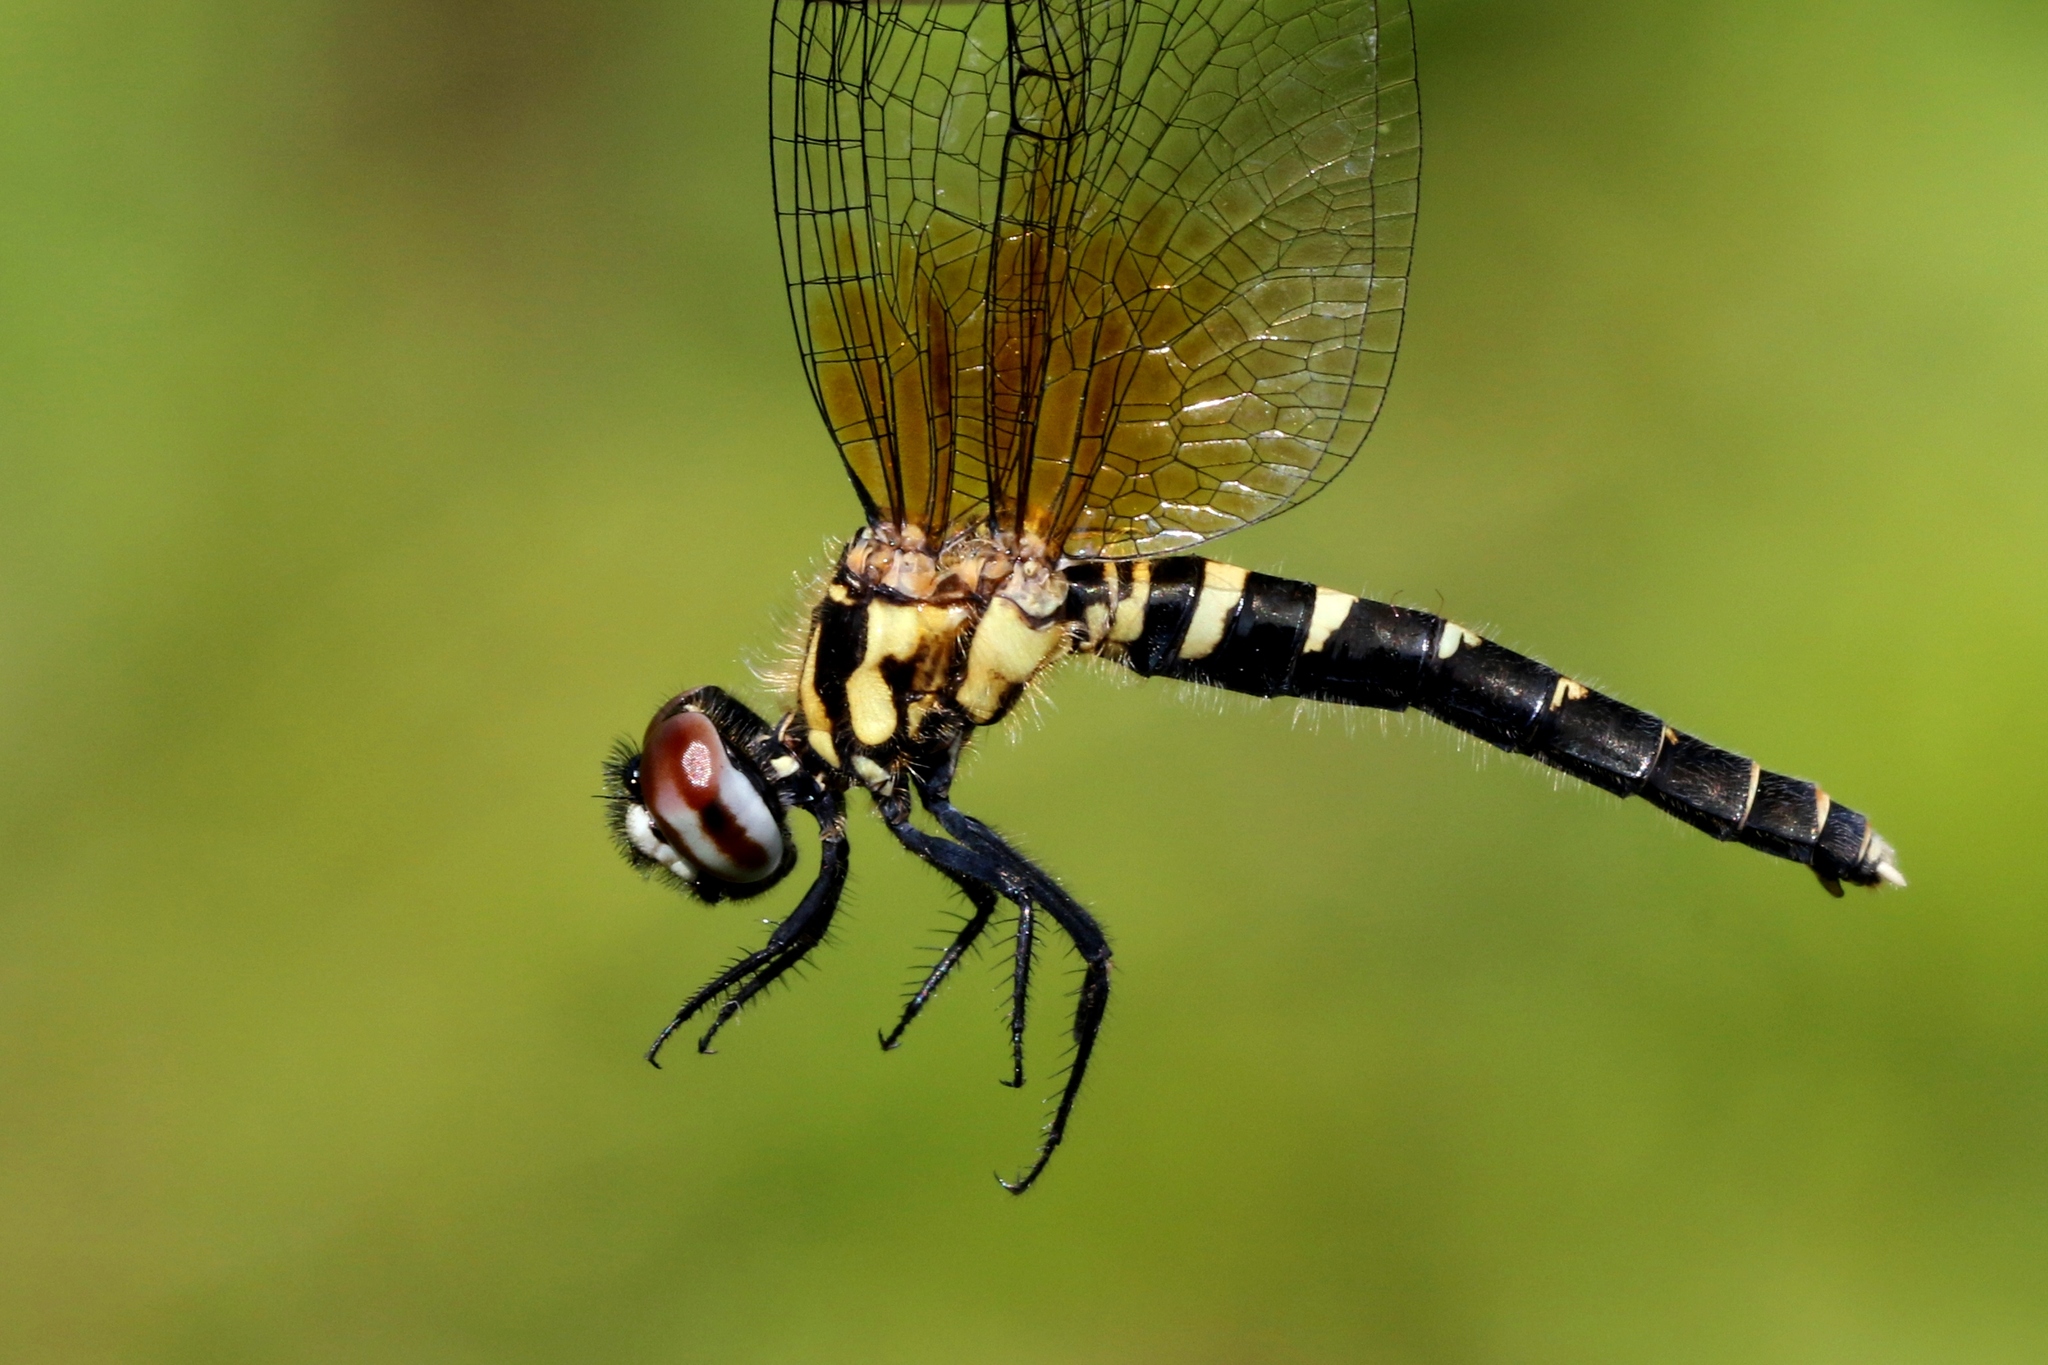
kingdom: Animalia
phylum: Arthropoda
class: Insecta
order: Odonata
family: Libellulidae
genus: Nannothemis
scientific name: Nannothemis bella
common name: Elfin skimmer
